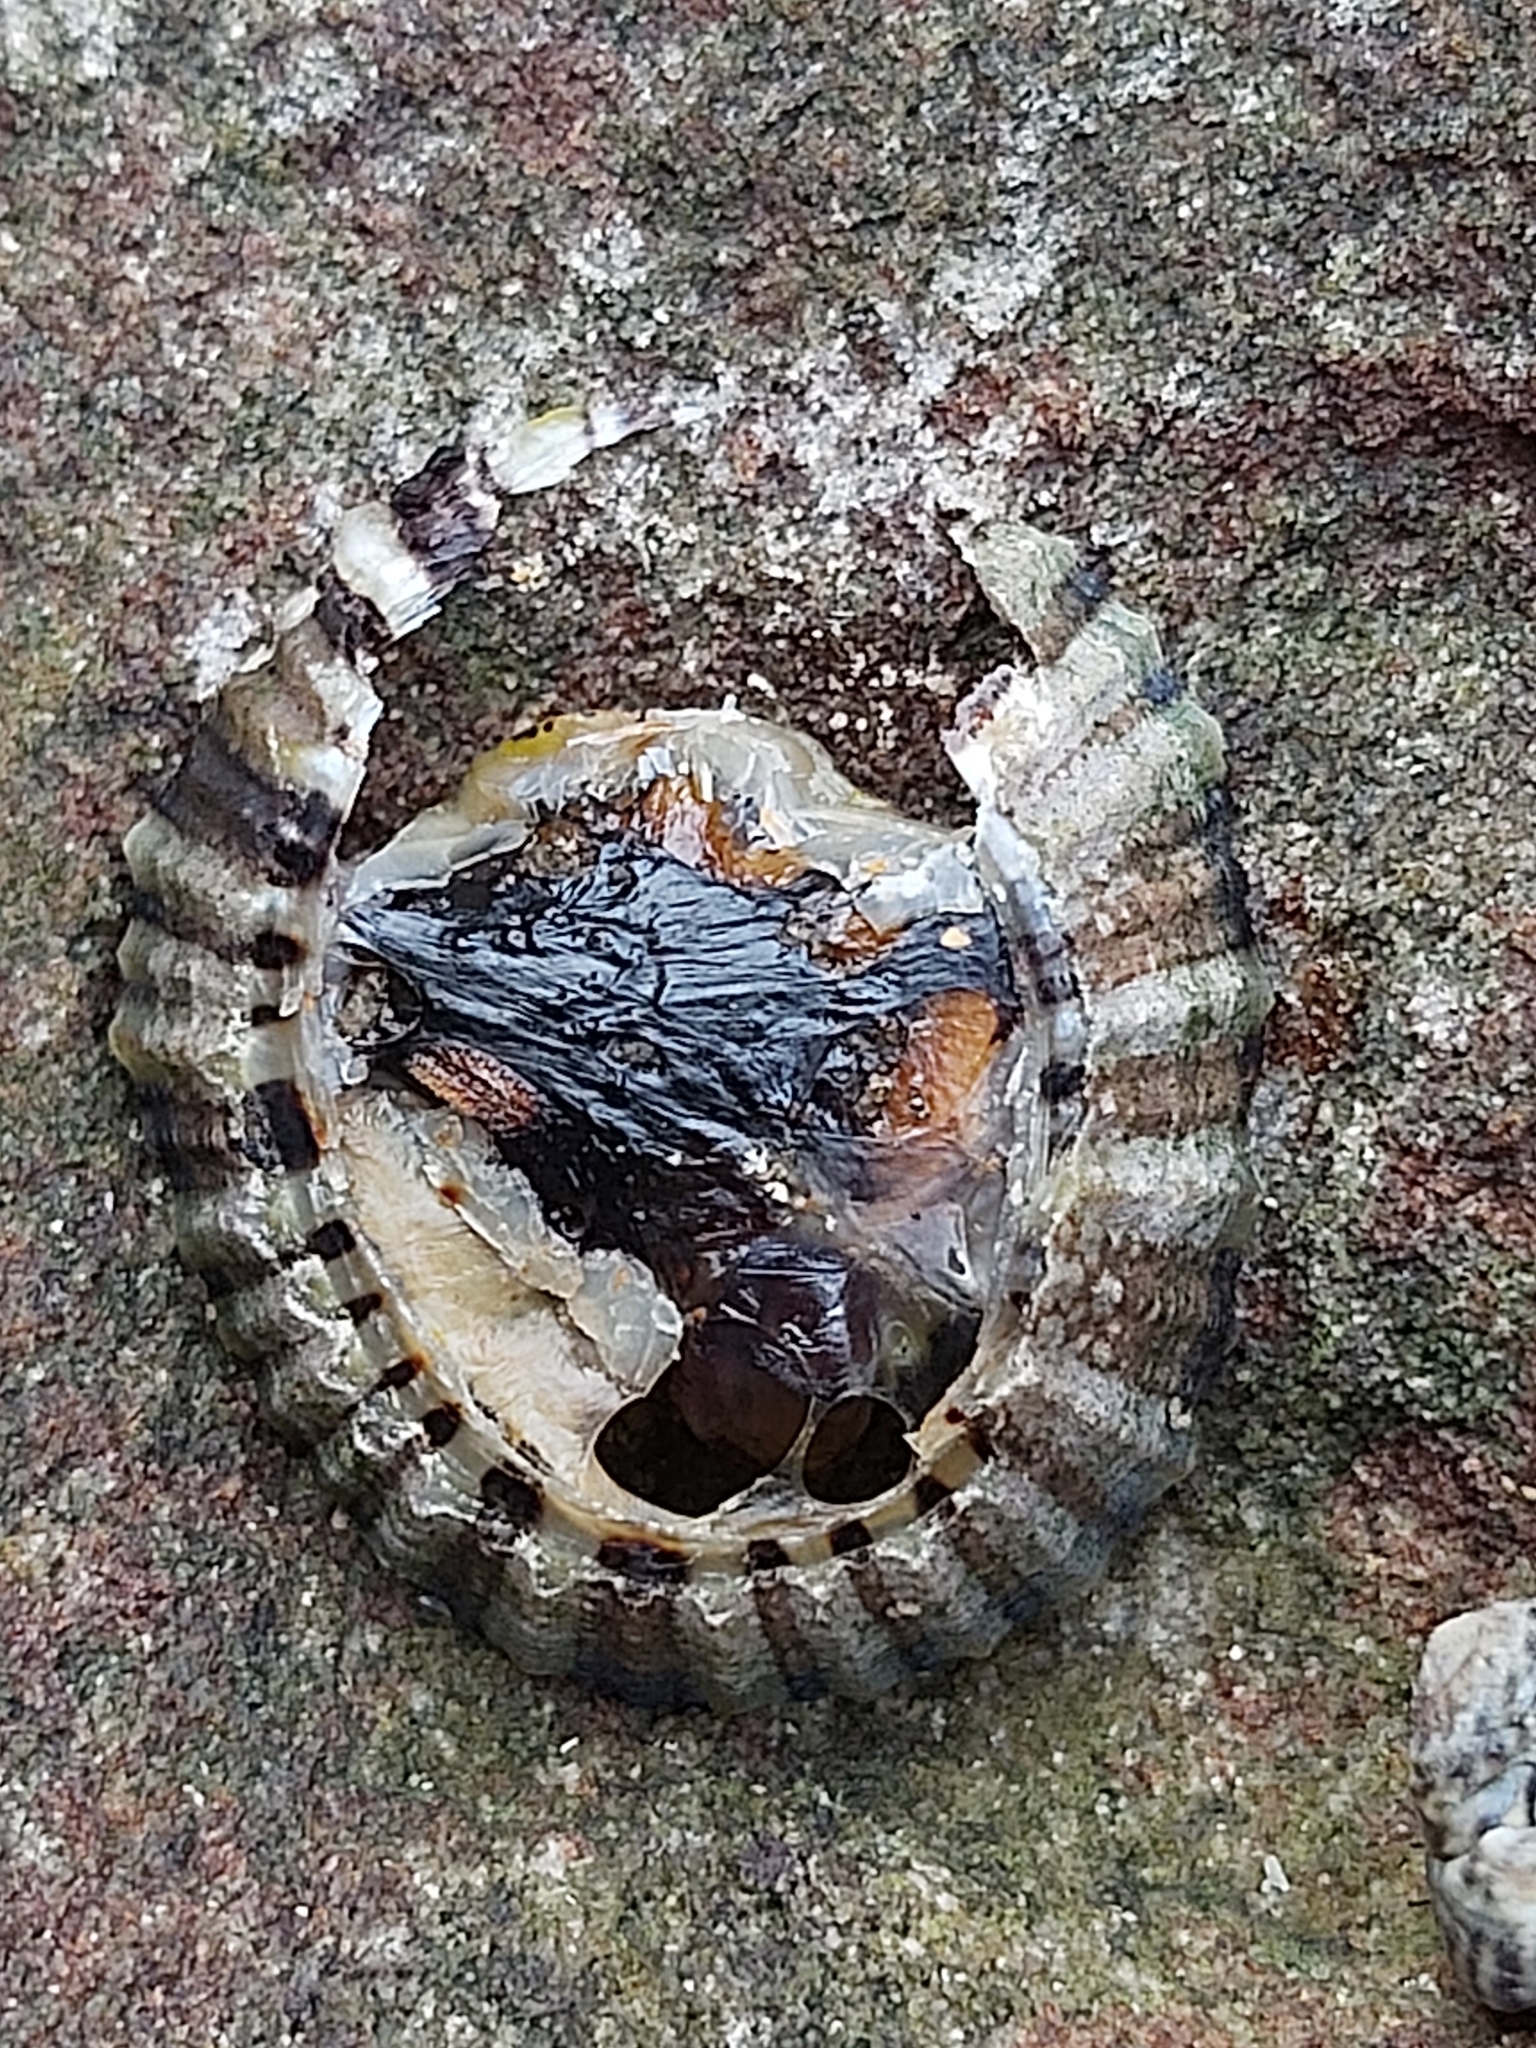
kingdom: Animalia
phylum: Mollusca
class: Gastropoda
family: Nacellidae
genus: Cellana
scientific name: Cellana tramoserica
